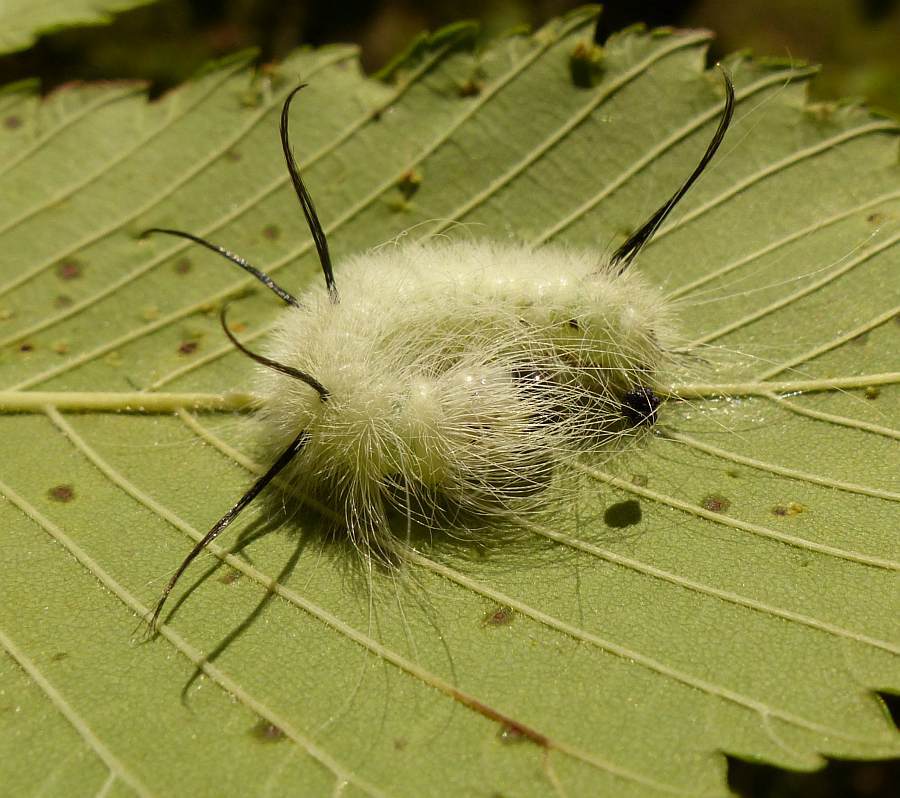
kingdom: Animalia
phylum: Arthropoda
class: Insecta
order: Lepidoptera
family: Noctuidae
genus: Acronicta
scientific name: Acronicta americana
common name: American dagger
